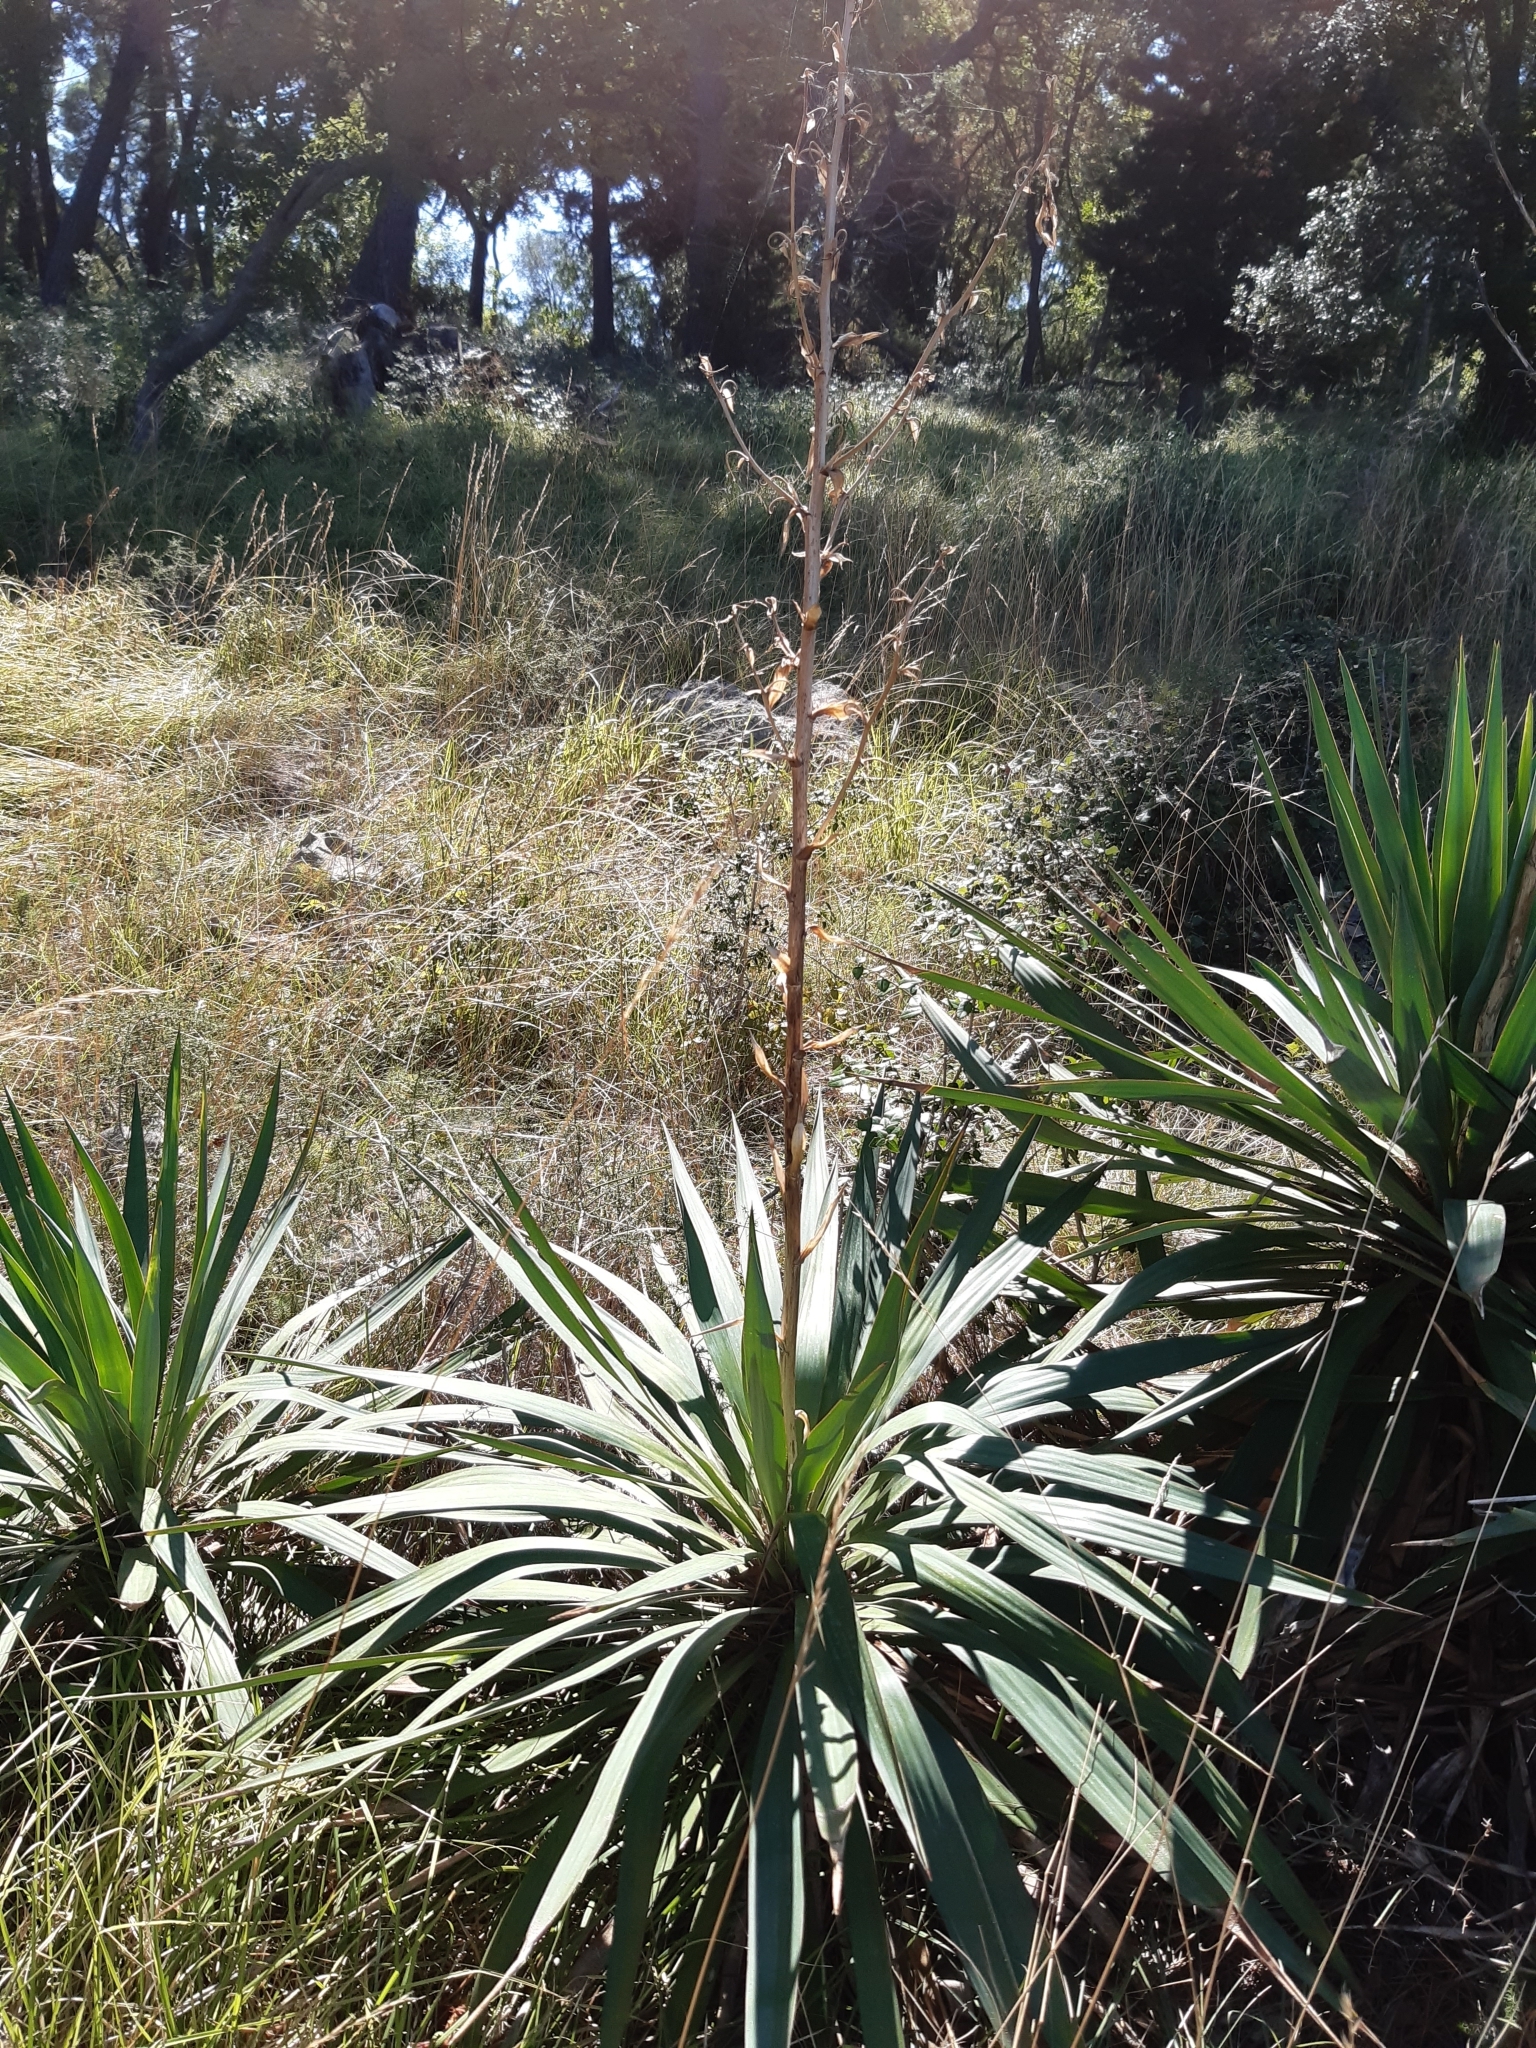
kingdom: Plantae
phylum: Tracheophyta
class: Liliopsida
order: Asparagales
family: Asparagaceae
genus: Yucca
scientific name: Yucca gloriosa
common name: Spanish-dagger
